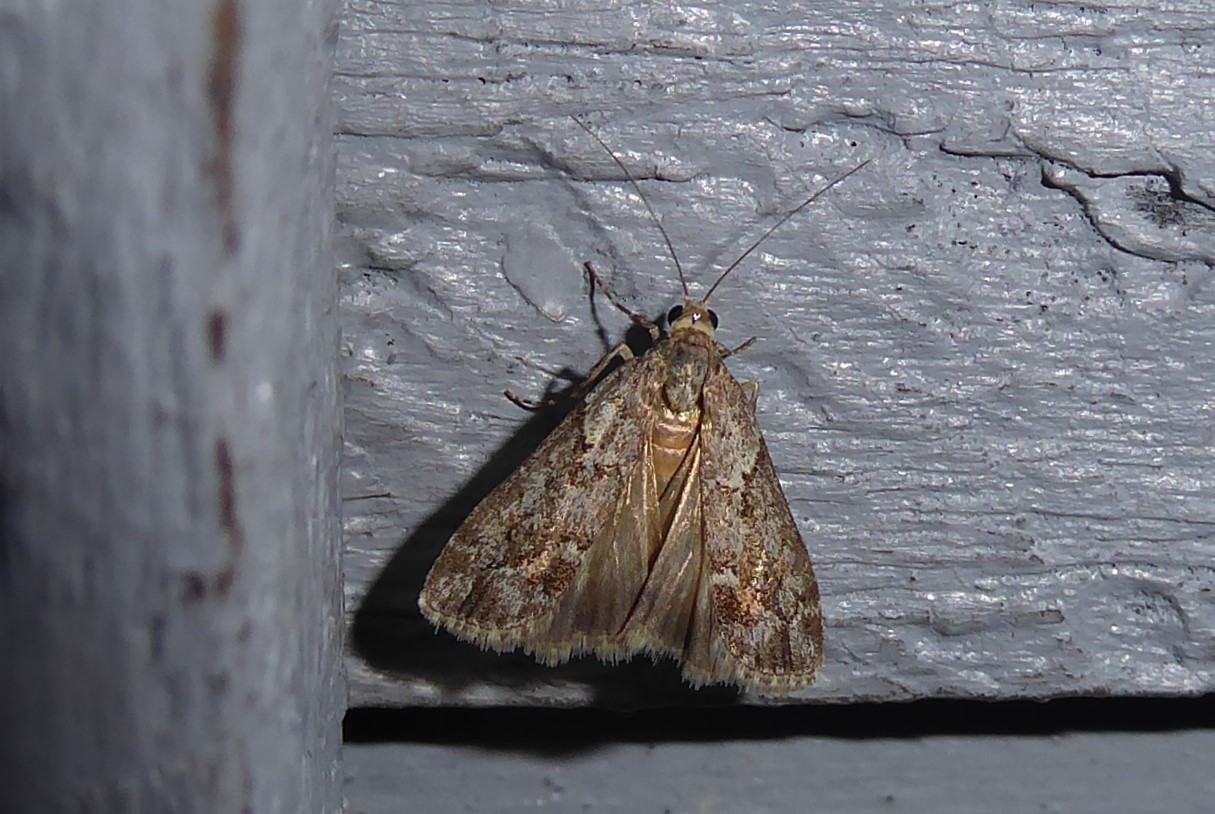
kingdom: Animalia
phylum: Arthropoda
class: Insecta
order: Lepidoptera
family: Crambidae
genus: Eudonia
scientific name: Eudonia submarginalis
